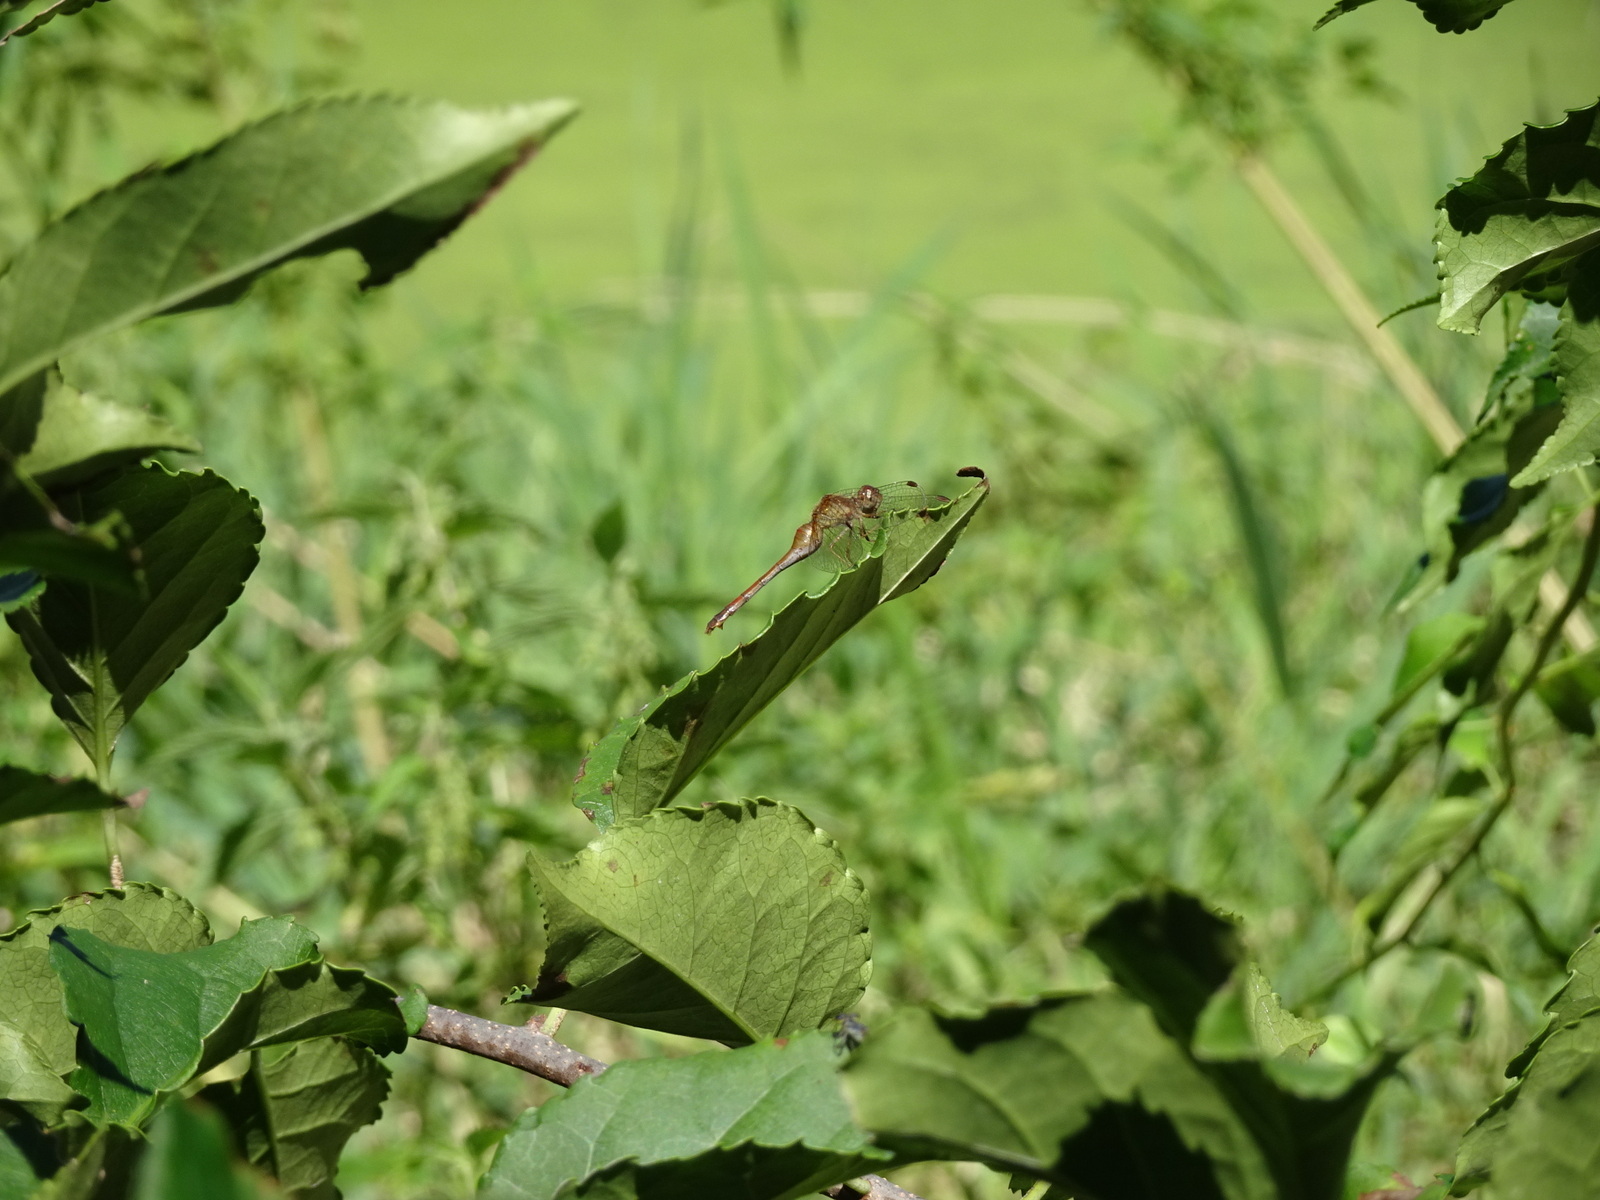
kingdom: Animalia
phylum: Arthropoda
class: Insecta
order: Odonata
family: Libellulidae
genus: Sympetrum
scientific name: Sympetrum vicinum
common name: Autumn meadowhawk
